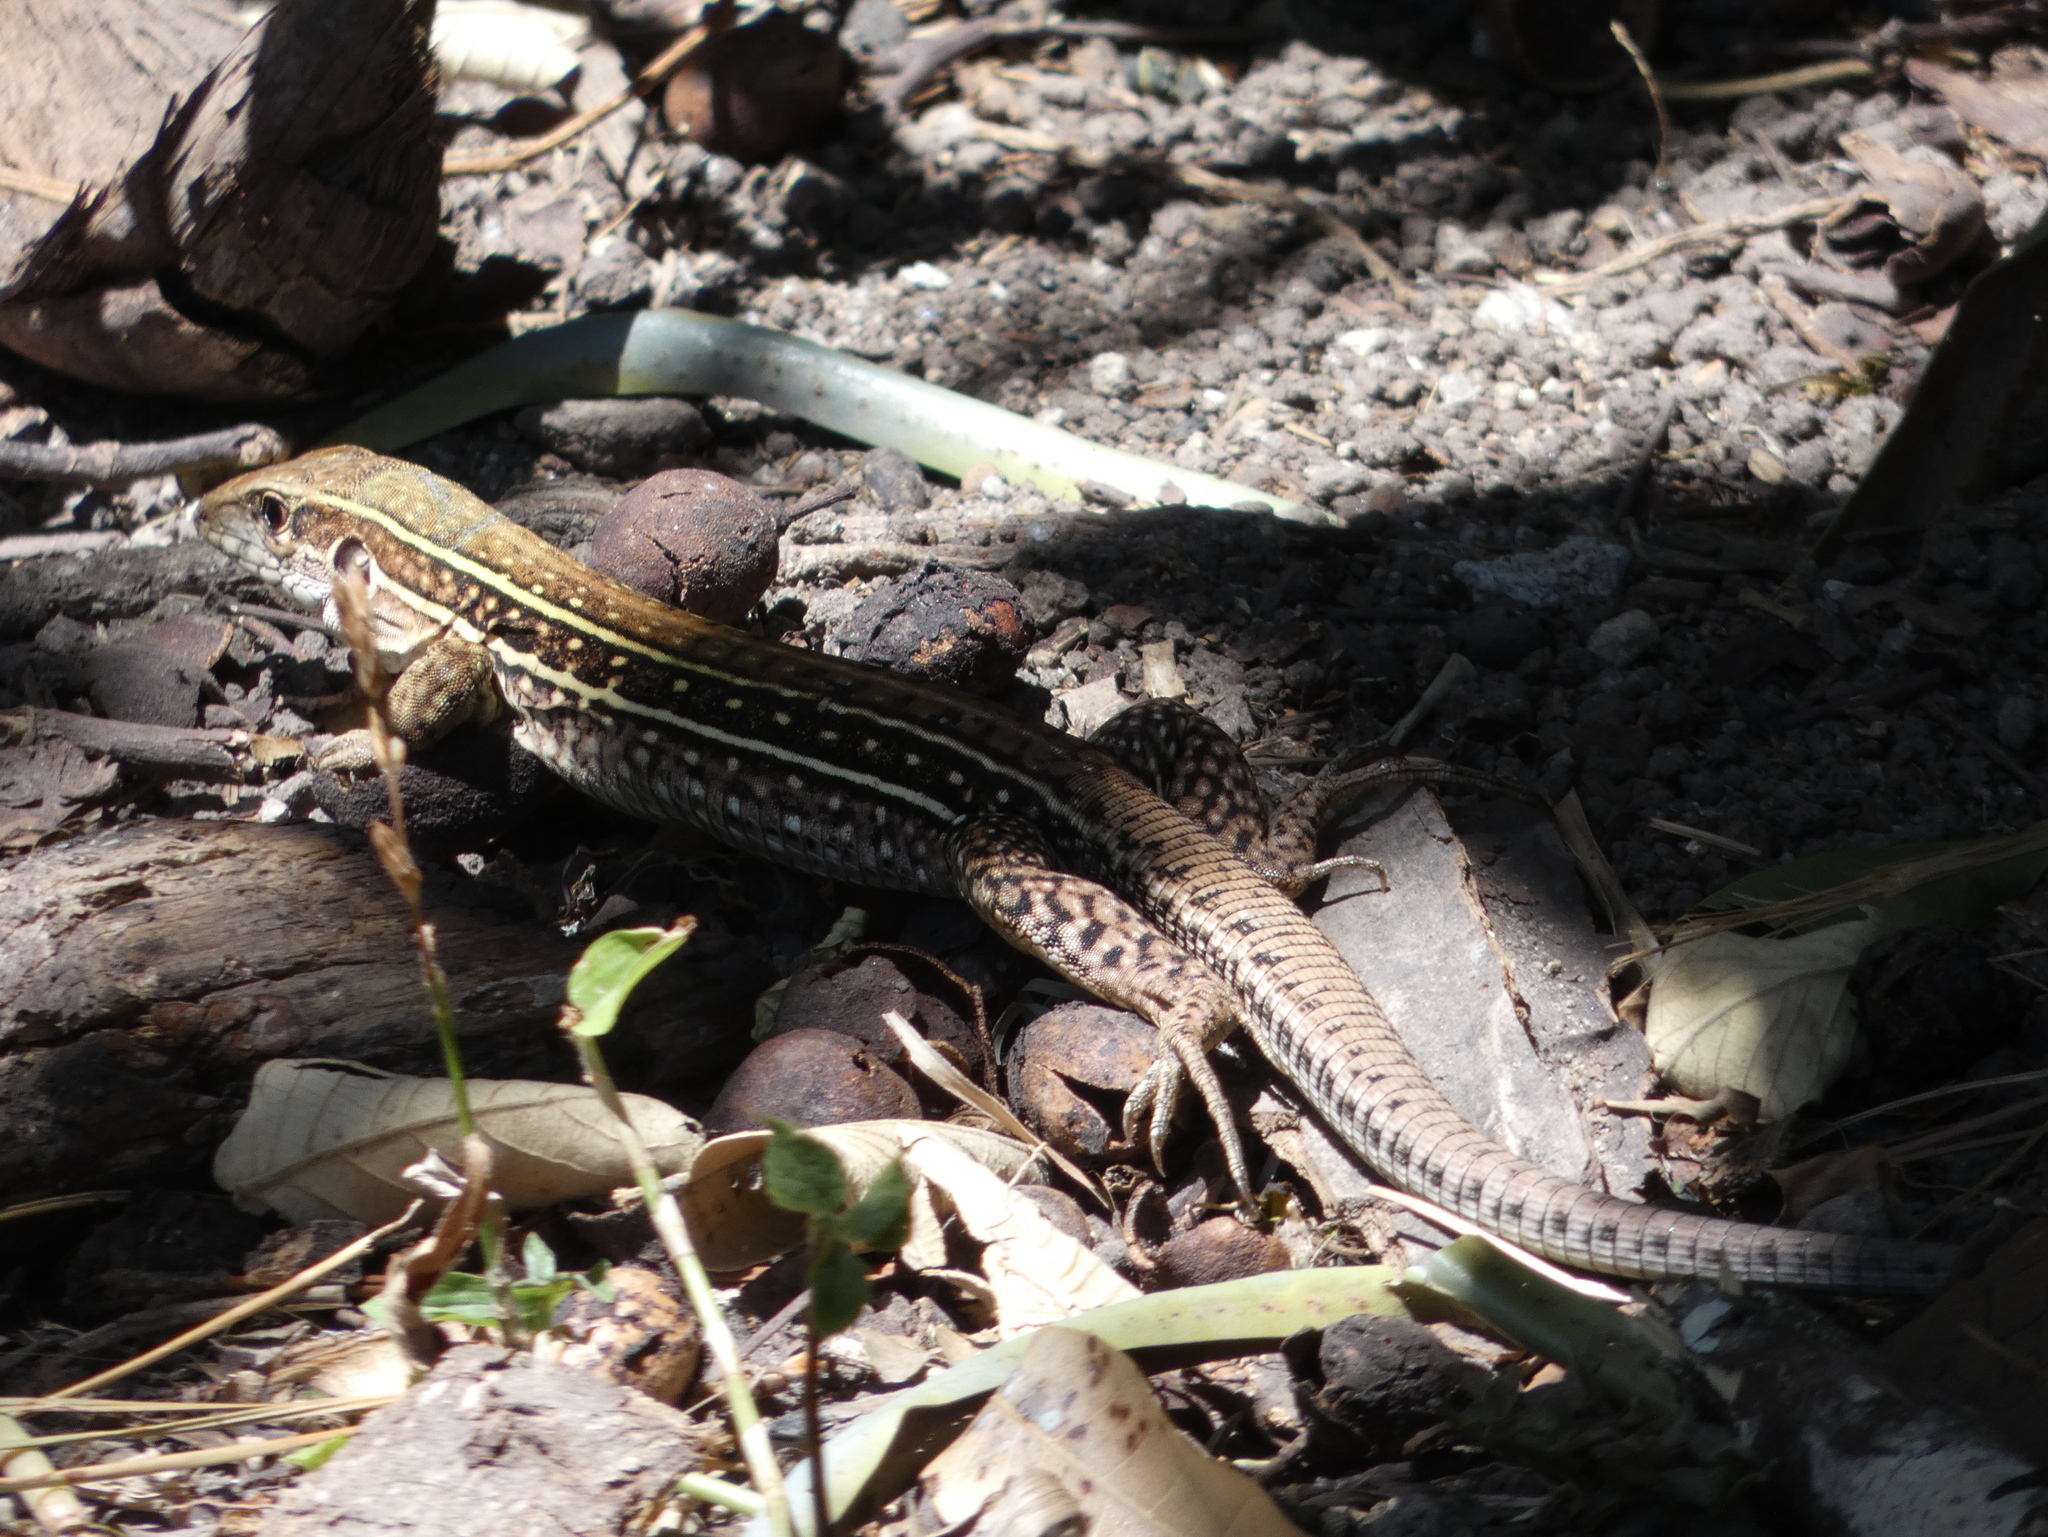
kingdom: Animalia
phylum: Chordata
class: Squamata
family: Teiidae
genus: Ameiva
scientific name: Ameiva praesignis
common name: Giant ameiva
